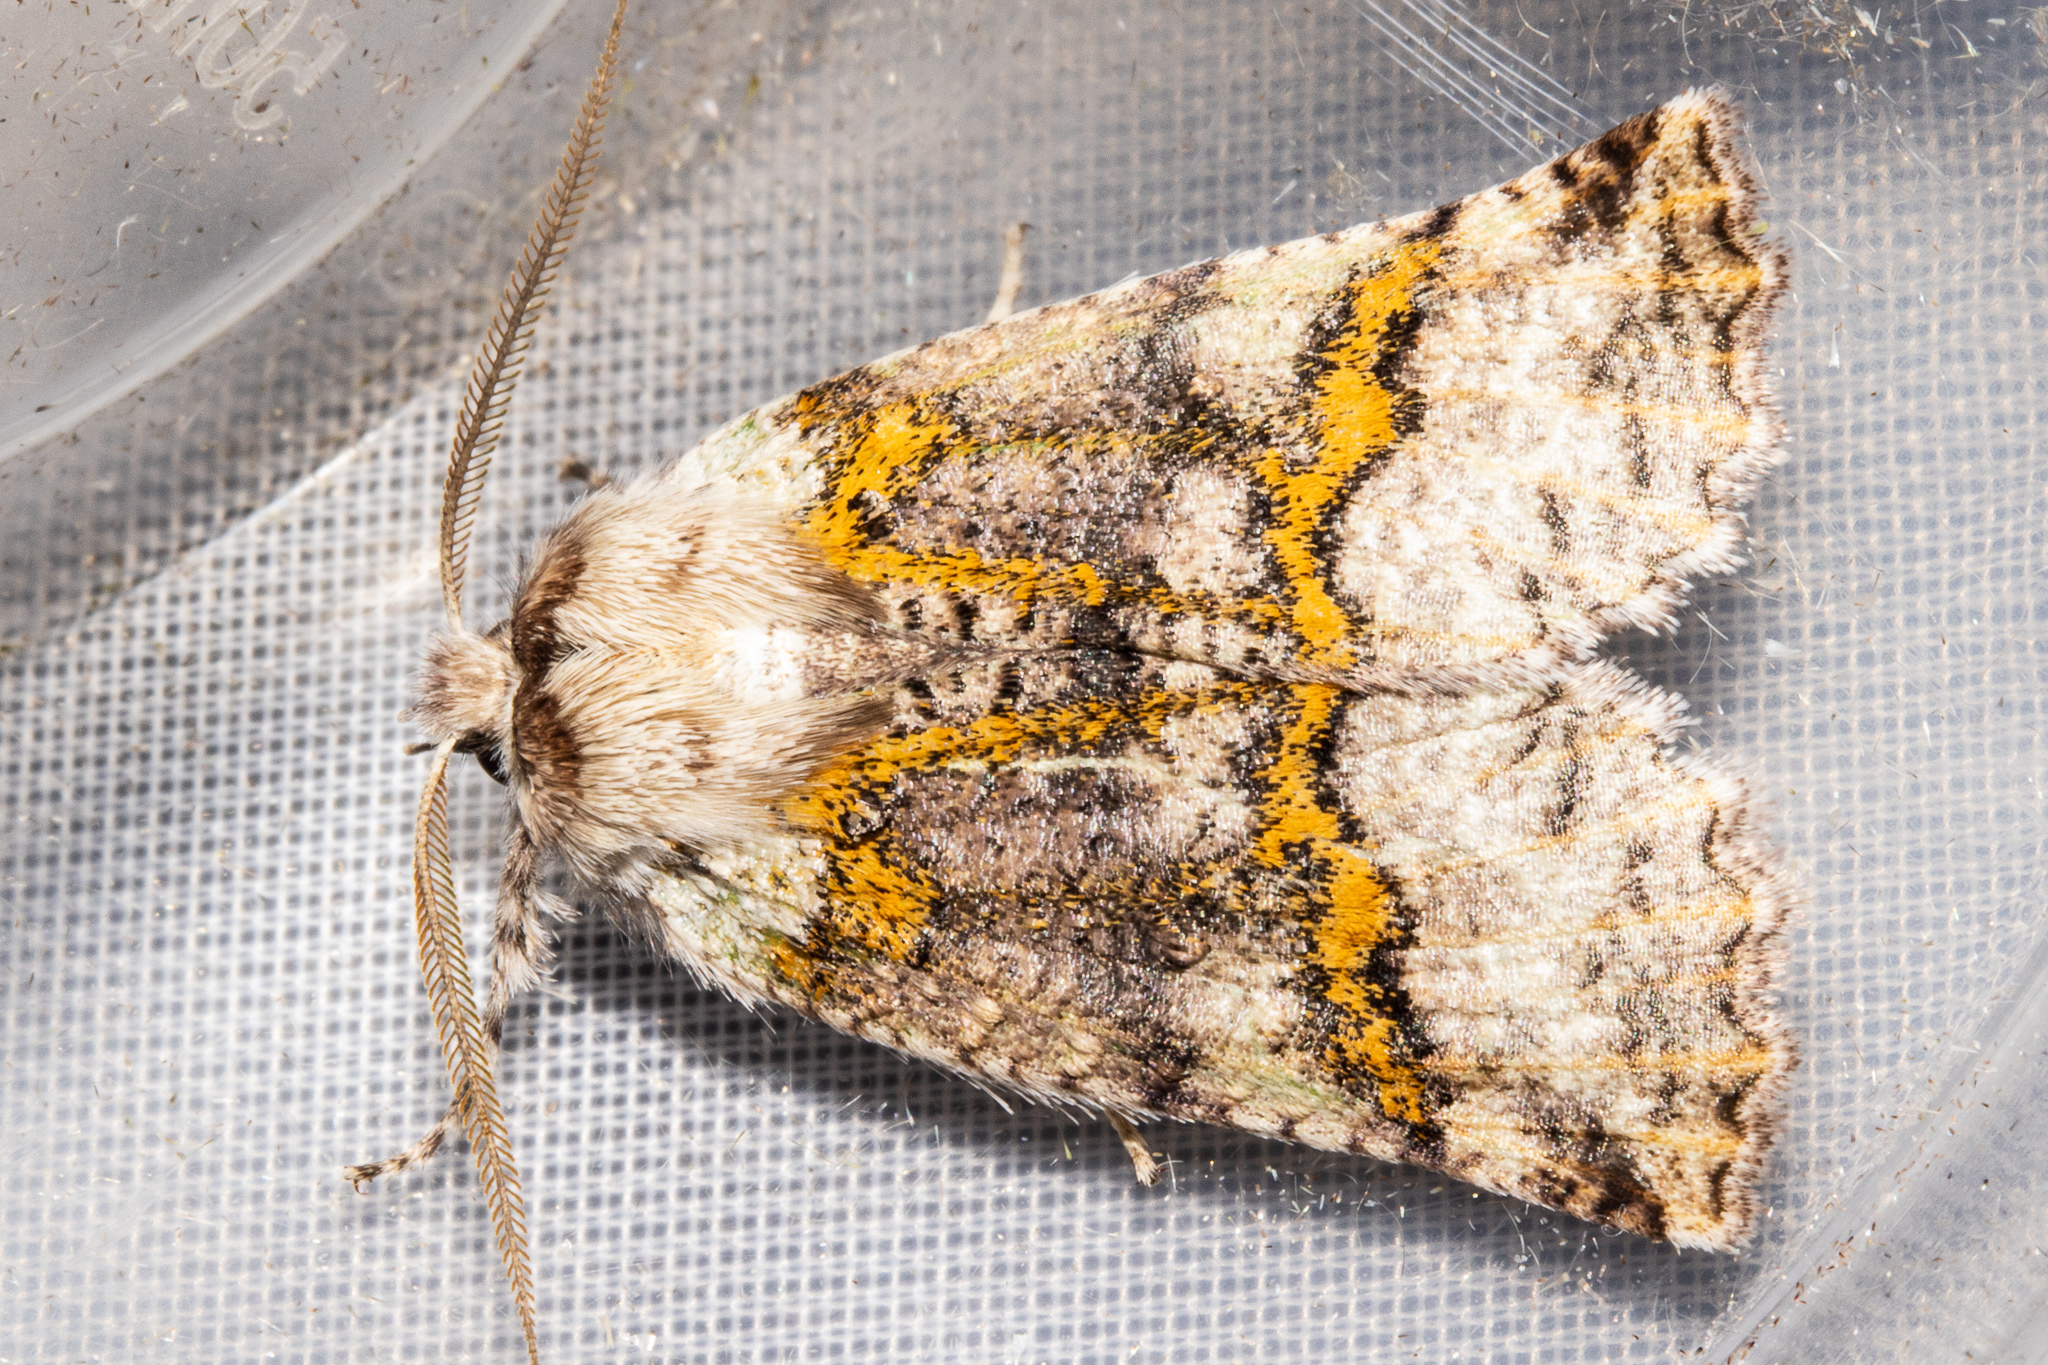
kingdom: Animalia
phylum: Arthropoda
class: Insecta
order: Lepidoptera
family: Geometridae
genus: Declana
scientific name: Declana floccosa
